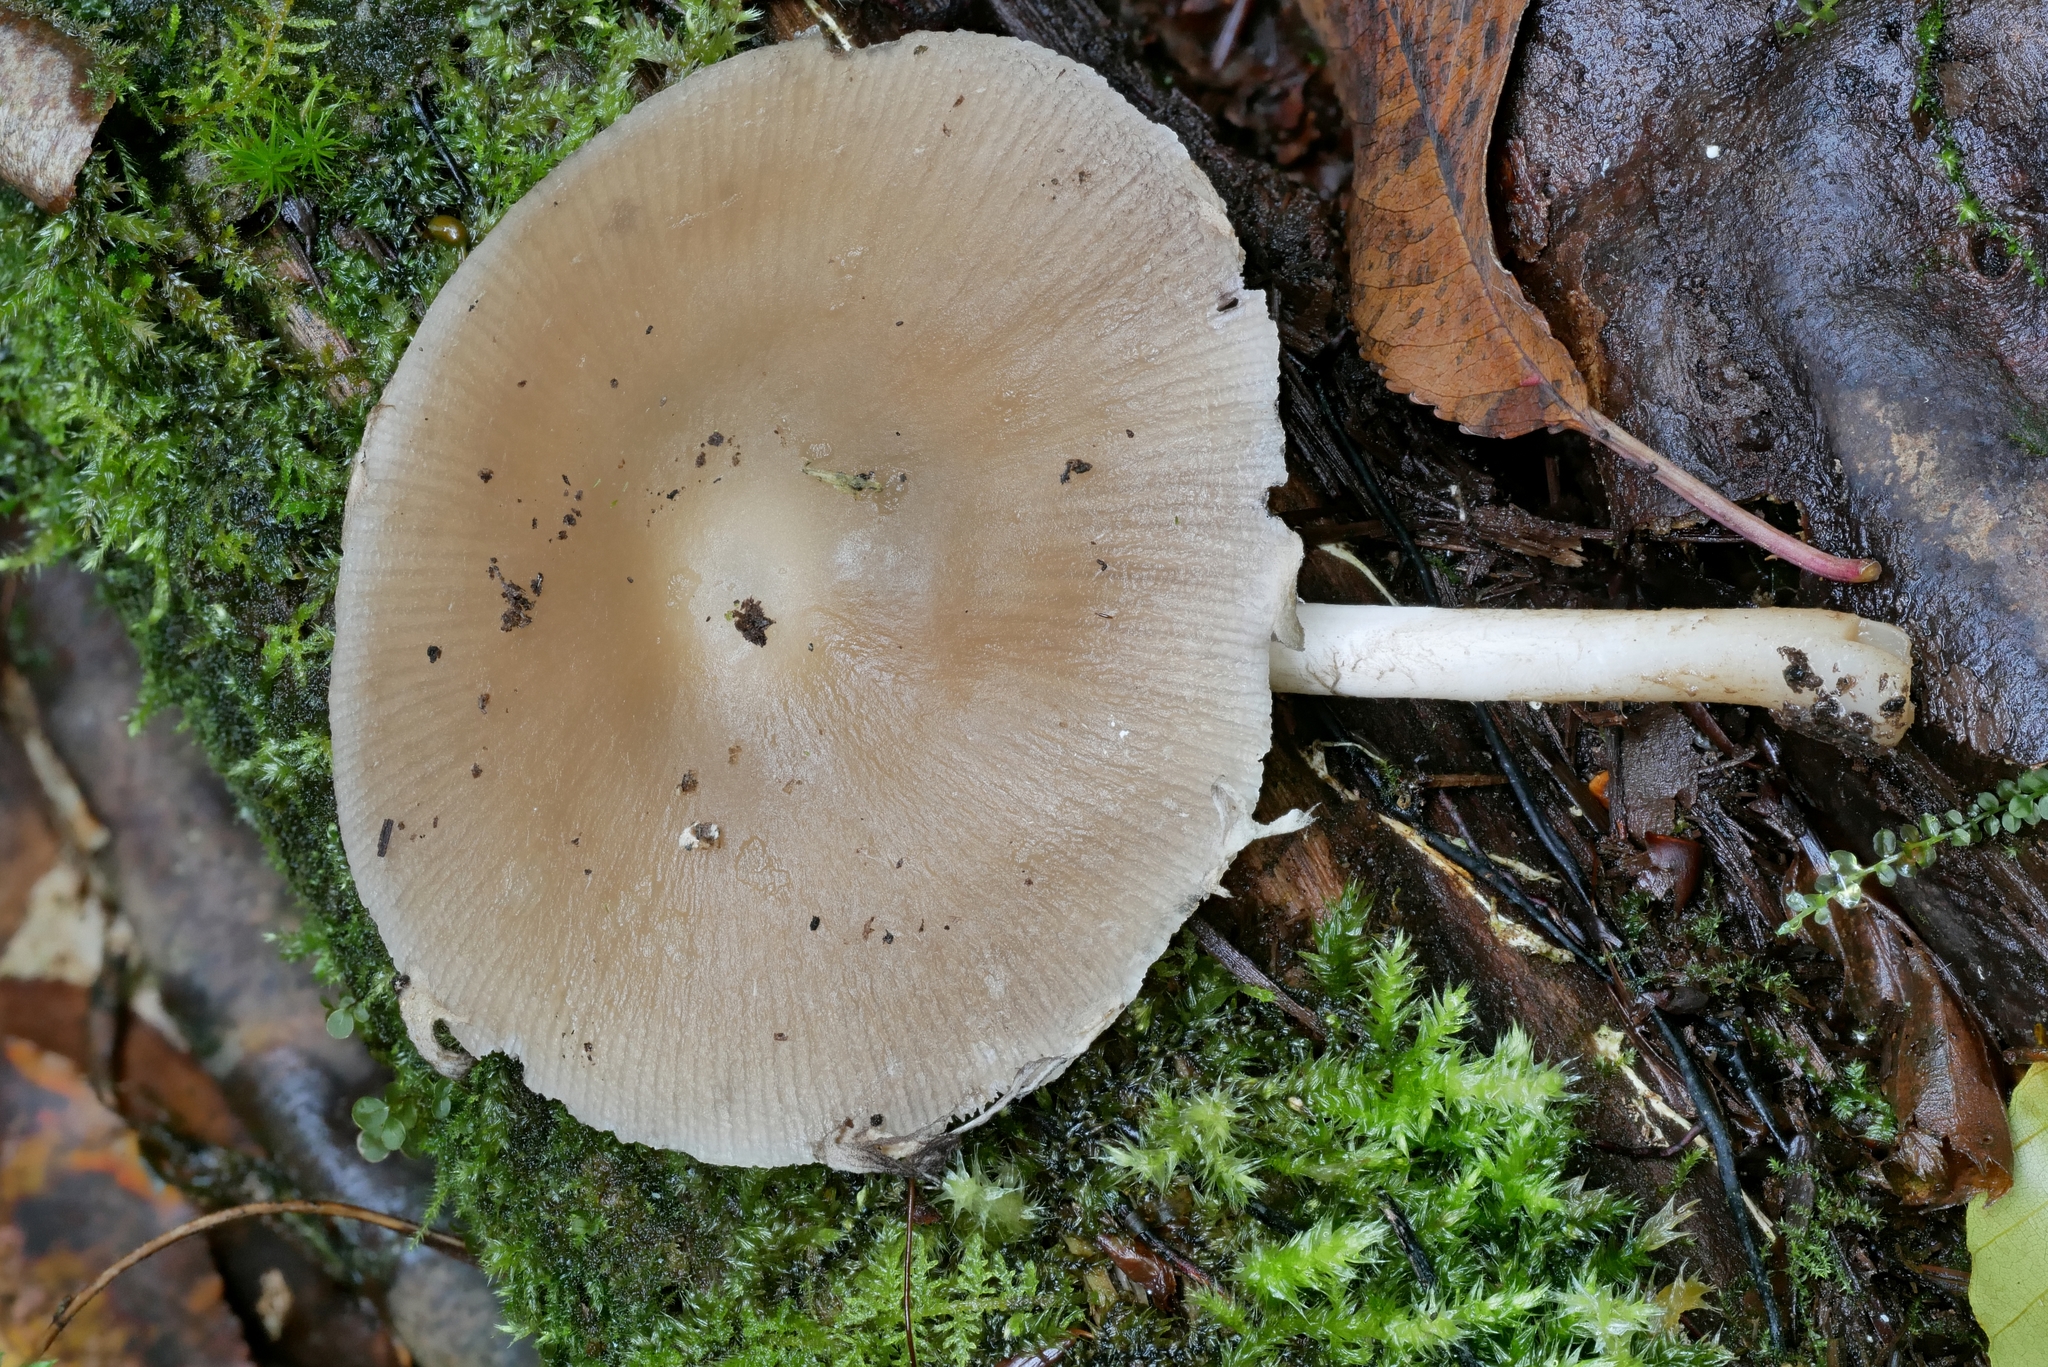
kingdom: Fungi
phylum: Basidiomycota
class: Agaricomycetes
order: Agaricales
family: Psathyrellaceae
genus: Psathyrella
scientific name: Psathyrella kauffmanii
